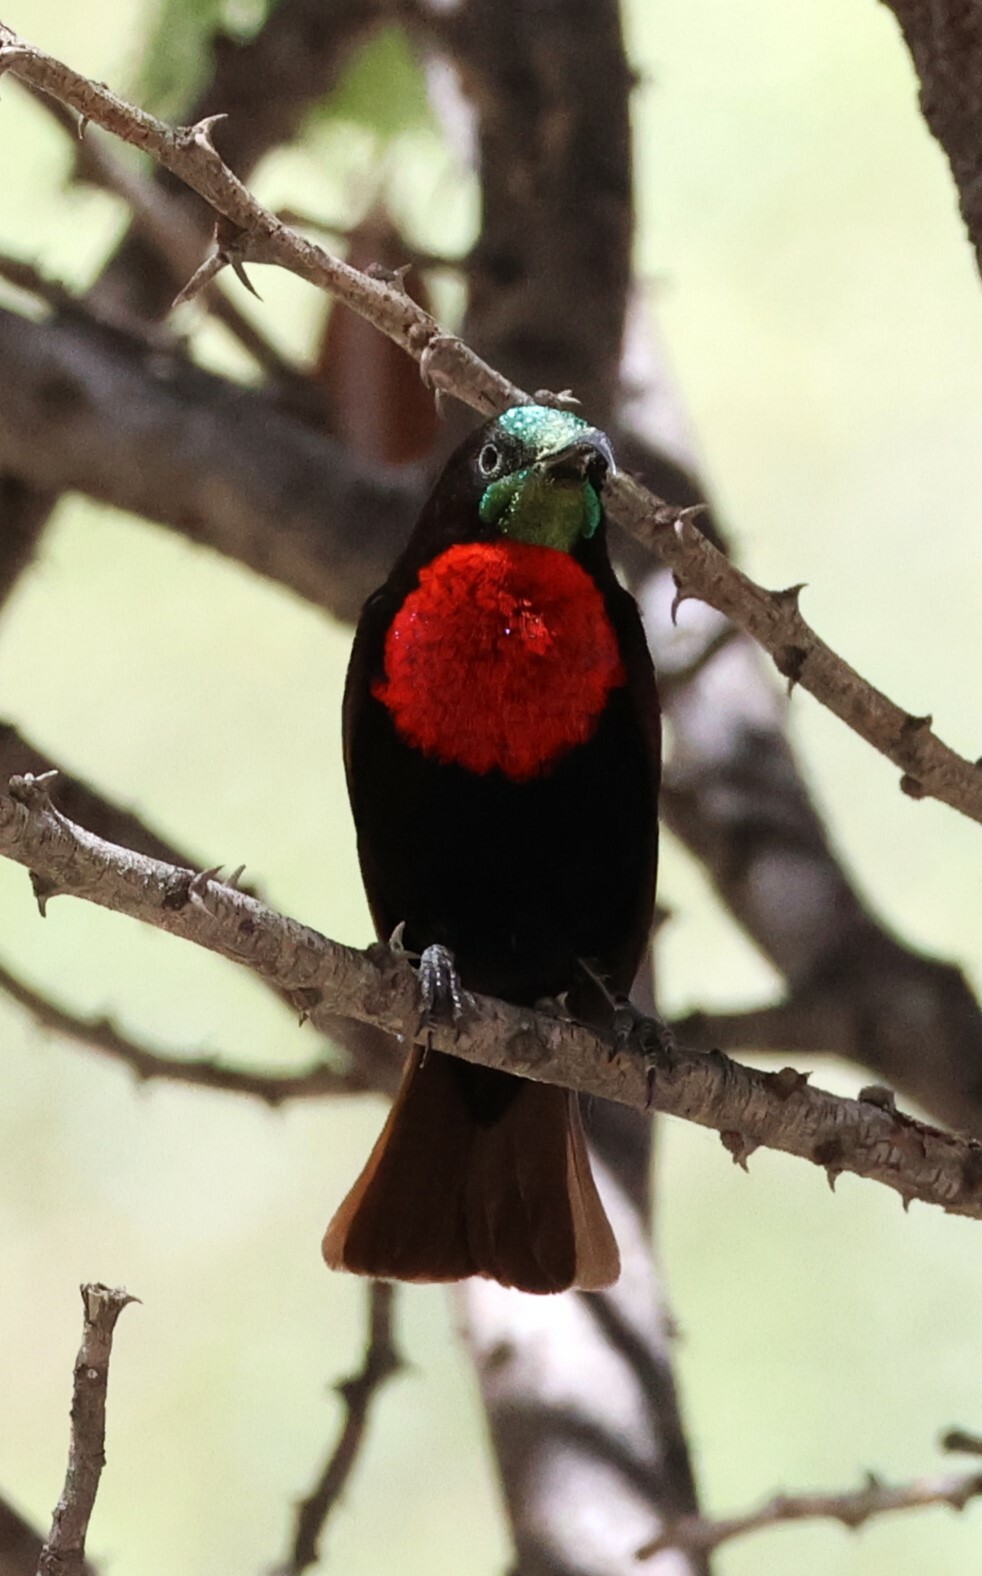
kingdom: Animalia
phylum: Chordata
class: Aves
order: Passeriformes
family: Nectariniidae
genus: Chalcomitra
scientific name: Chalcomitra senegalensis
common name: Scarlet-chested sunbird
